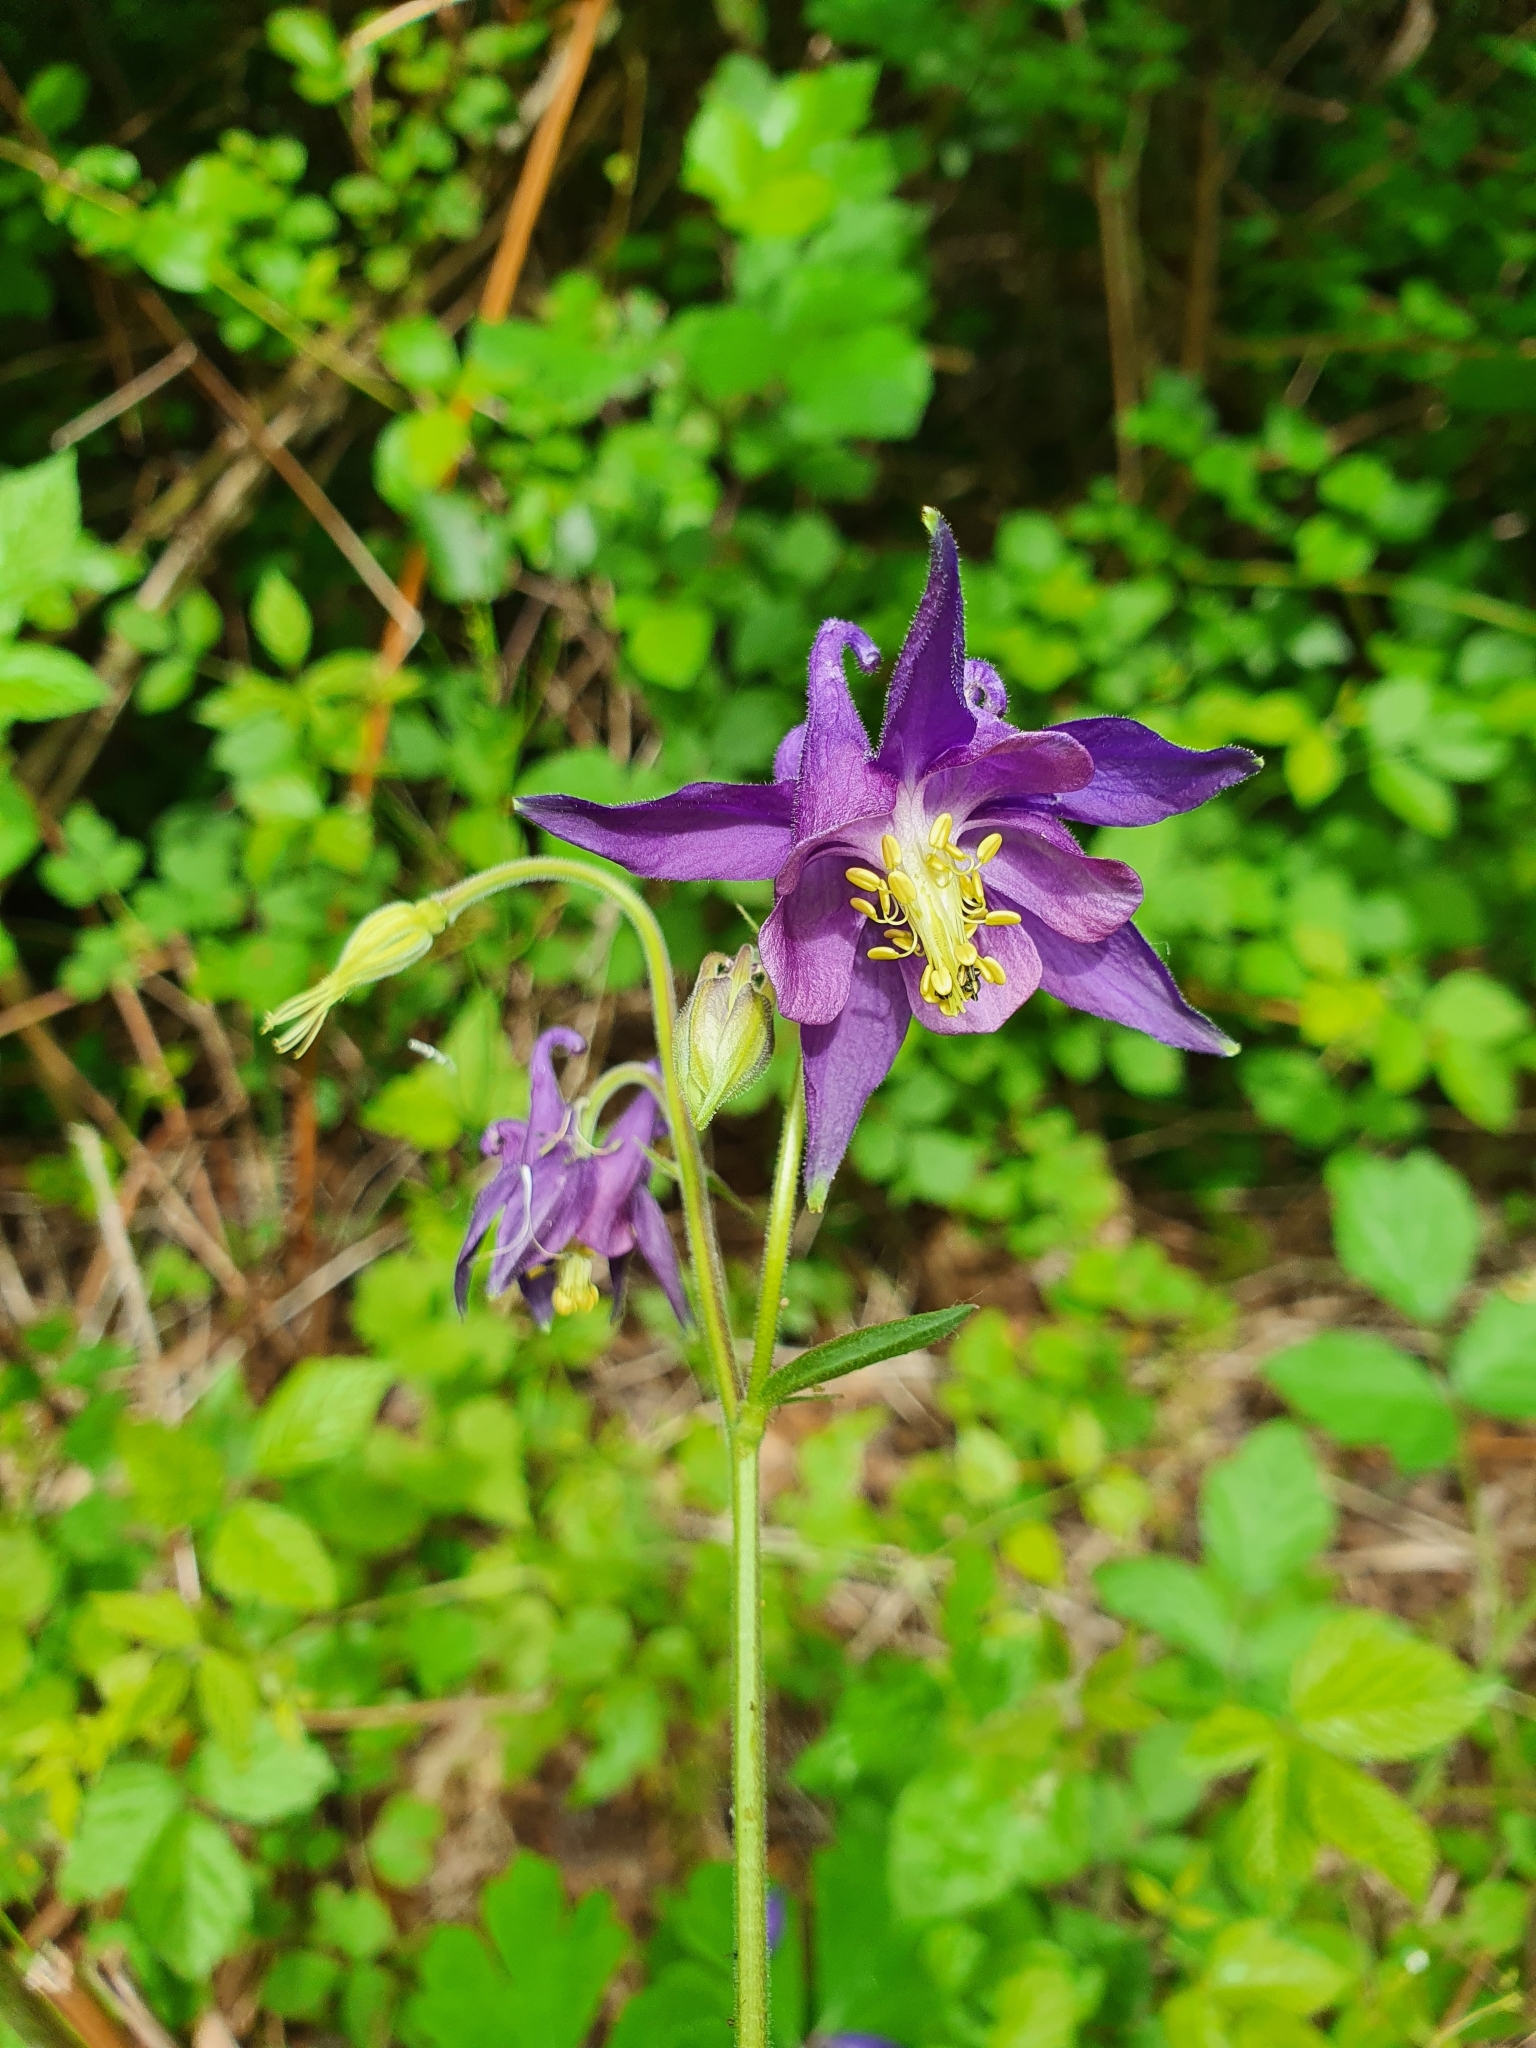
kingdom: Plantae
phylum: Tracheophyta
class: Magnoliopsida
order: Ranunculales
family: Ranunculaceae
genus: Aquilegia
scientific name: Aquilegia dumeticola
